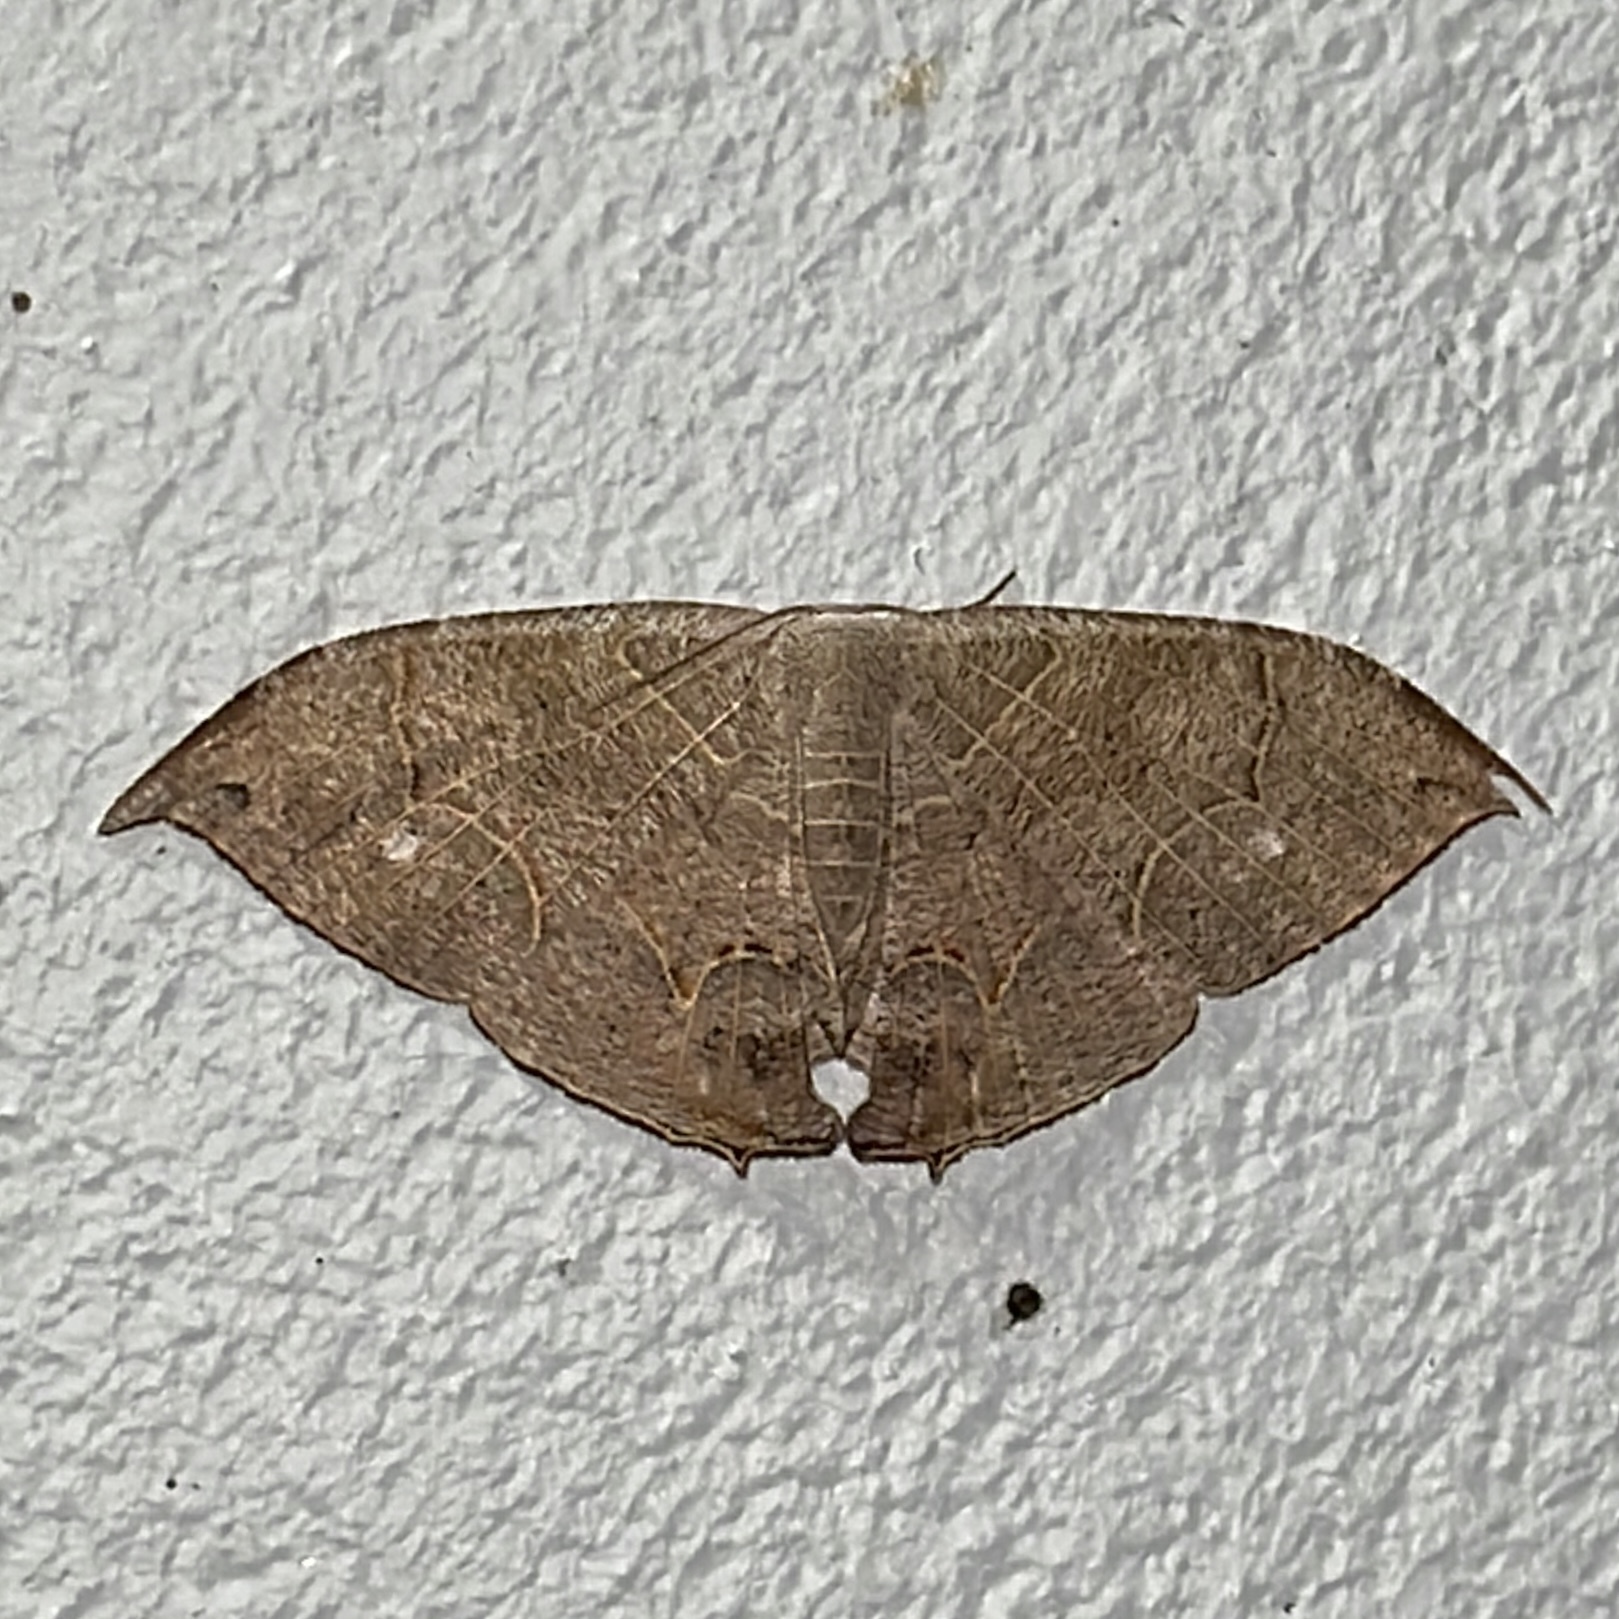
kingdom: Animalia
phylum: Arthropoda
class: Insecta
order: Lepidoptera
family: Uraniidae
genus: Syngria
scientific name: Syngria druidaria
